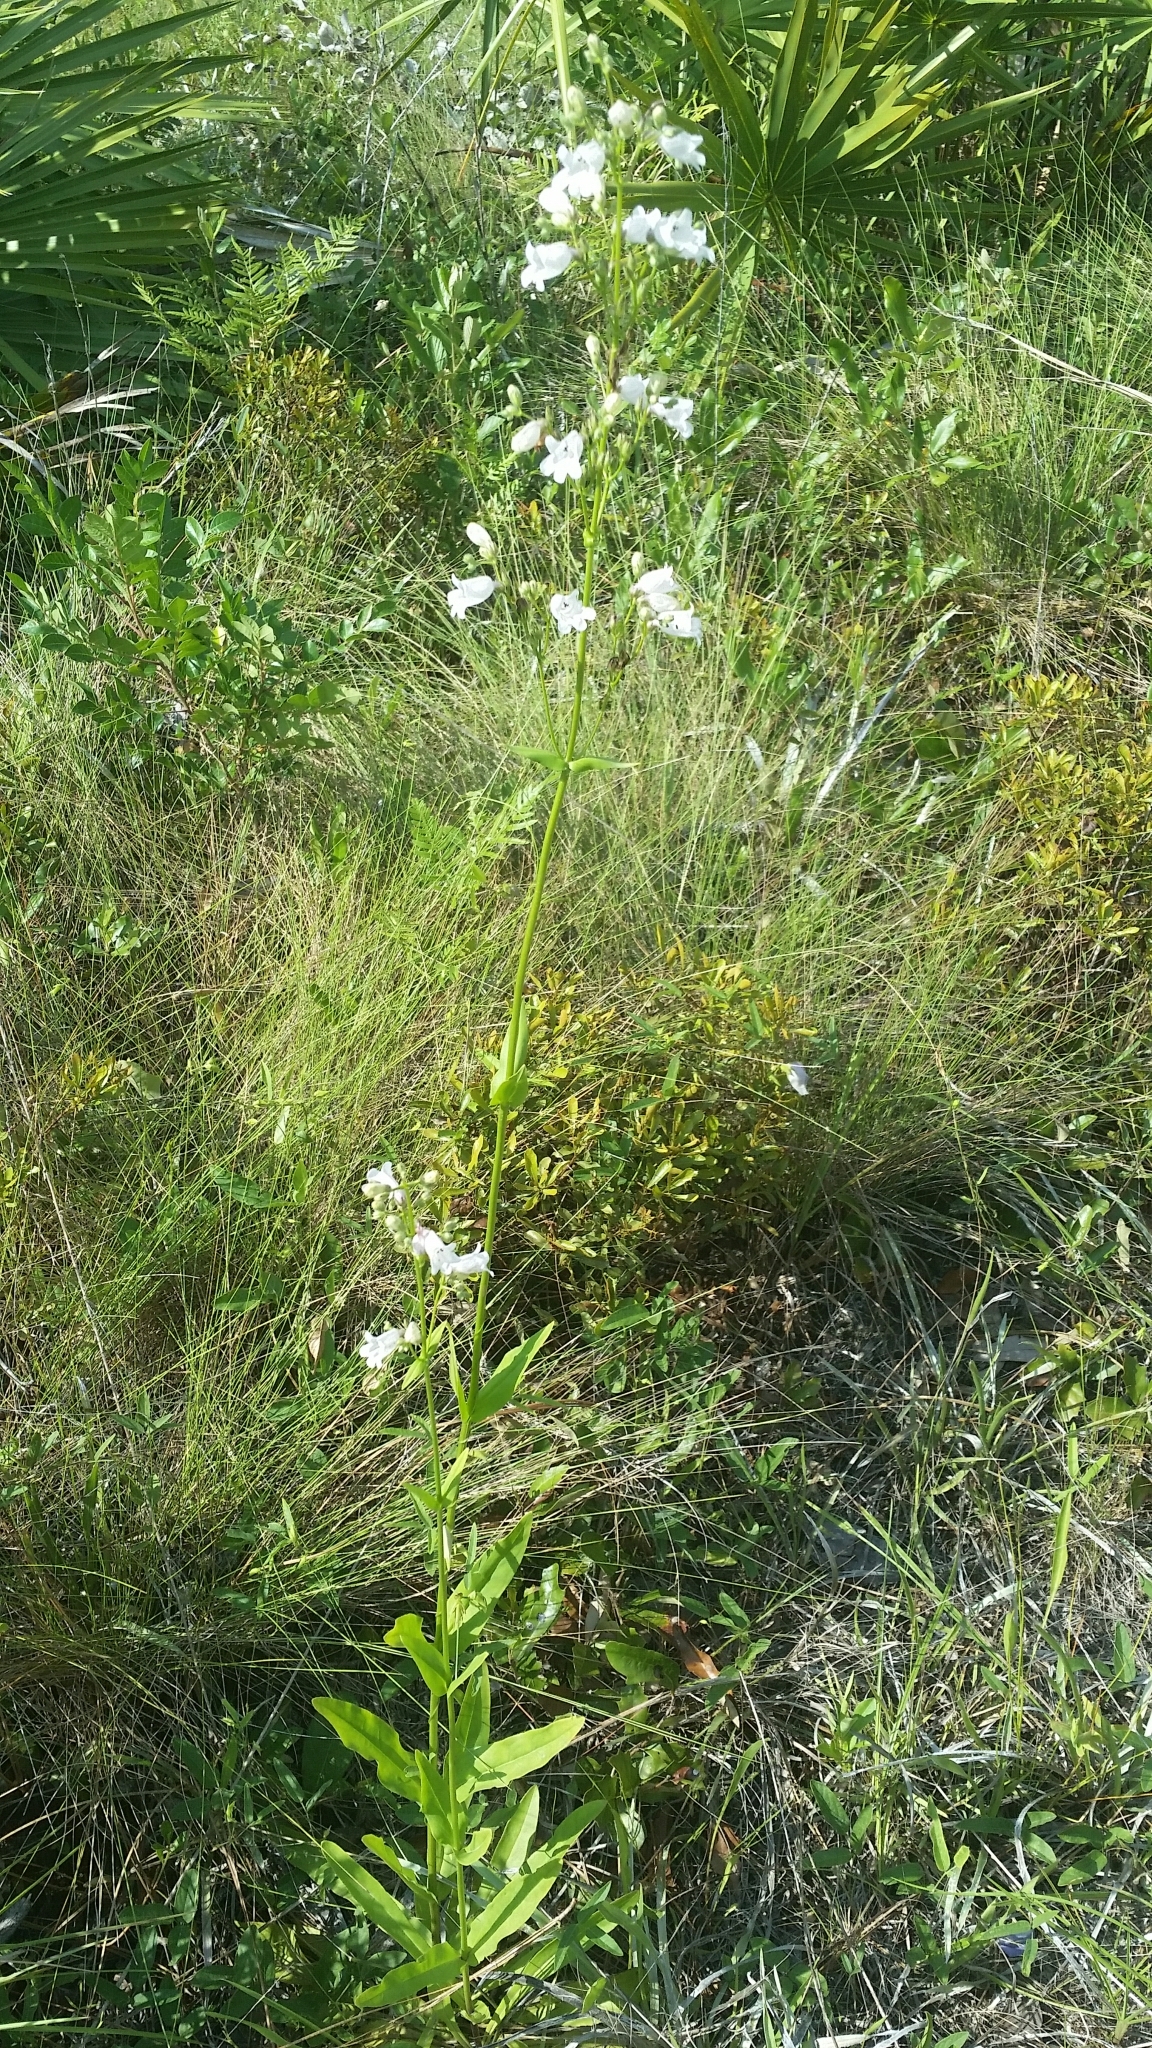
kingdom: Plantae
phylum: Tracheophyta
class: Magnoliopsida
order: Lamiales
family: Plantaginaceae
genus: Penstemon
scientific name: Penstemon multiflorus
